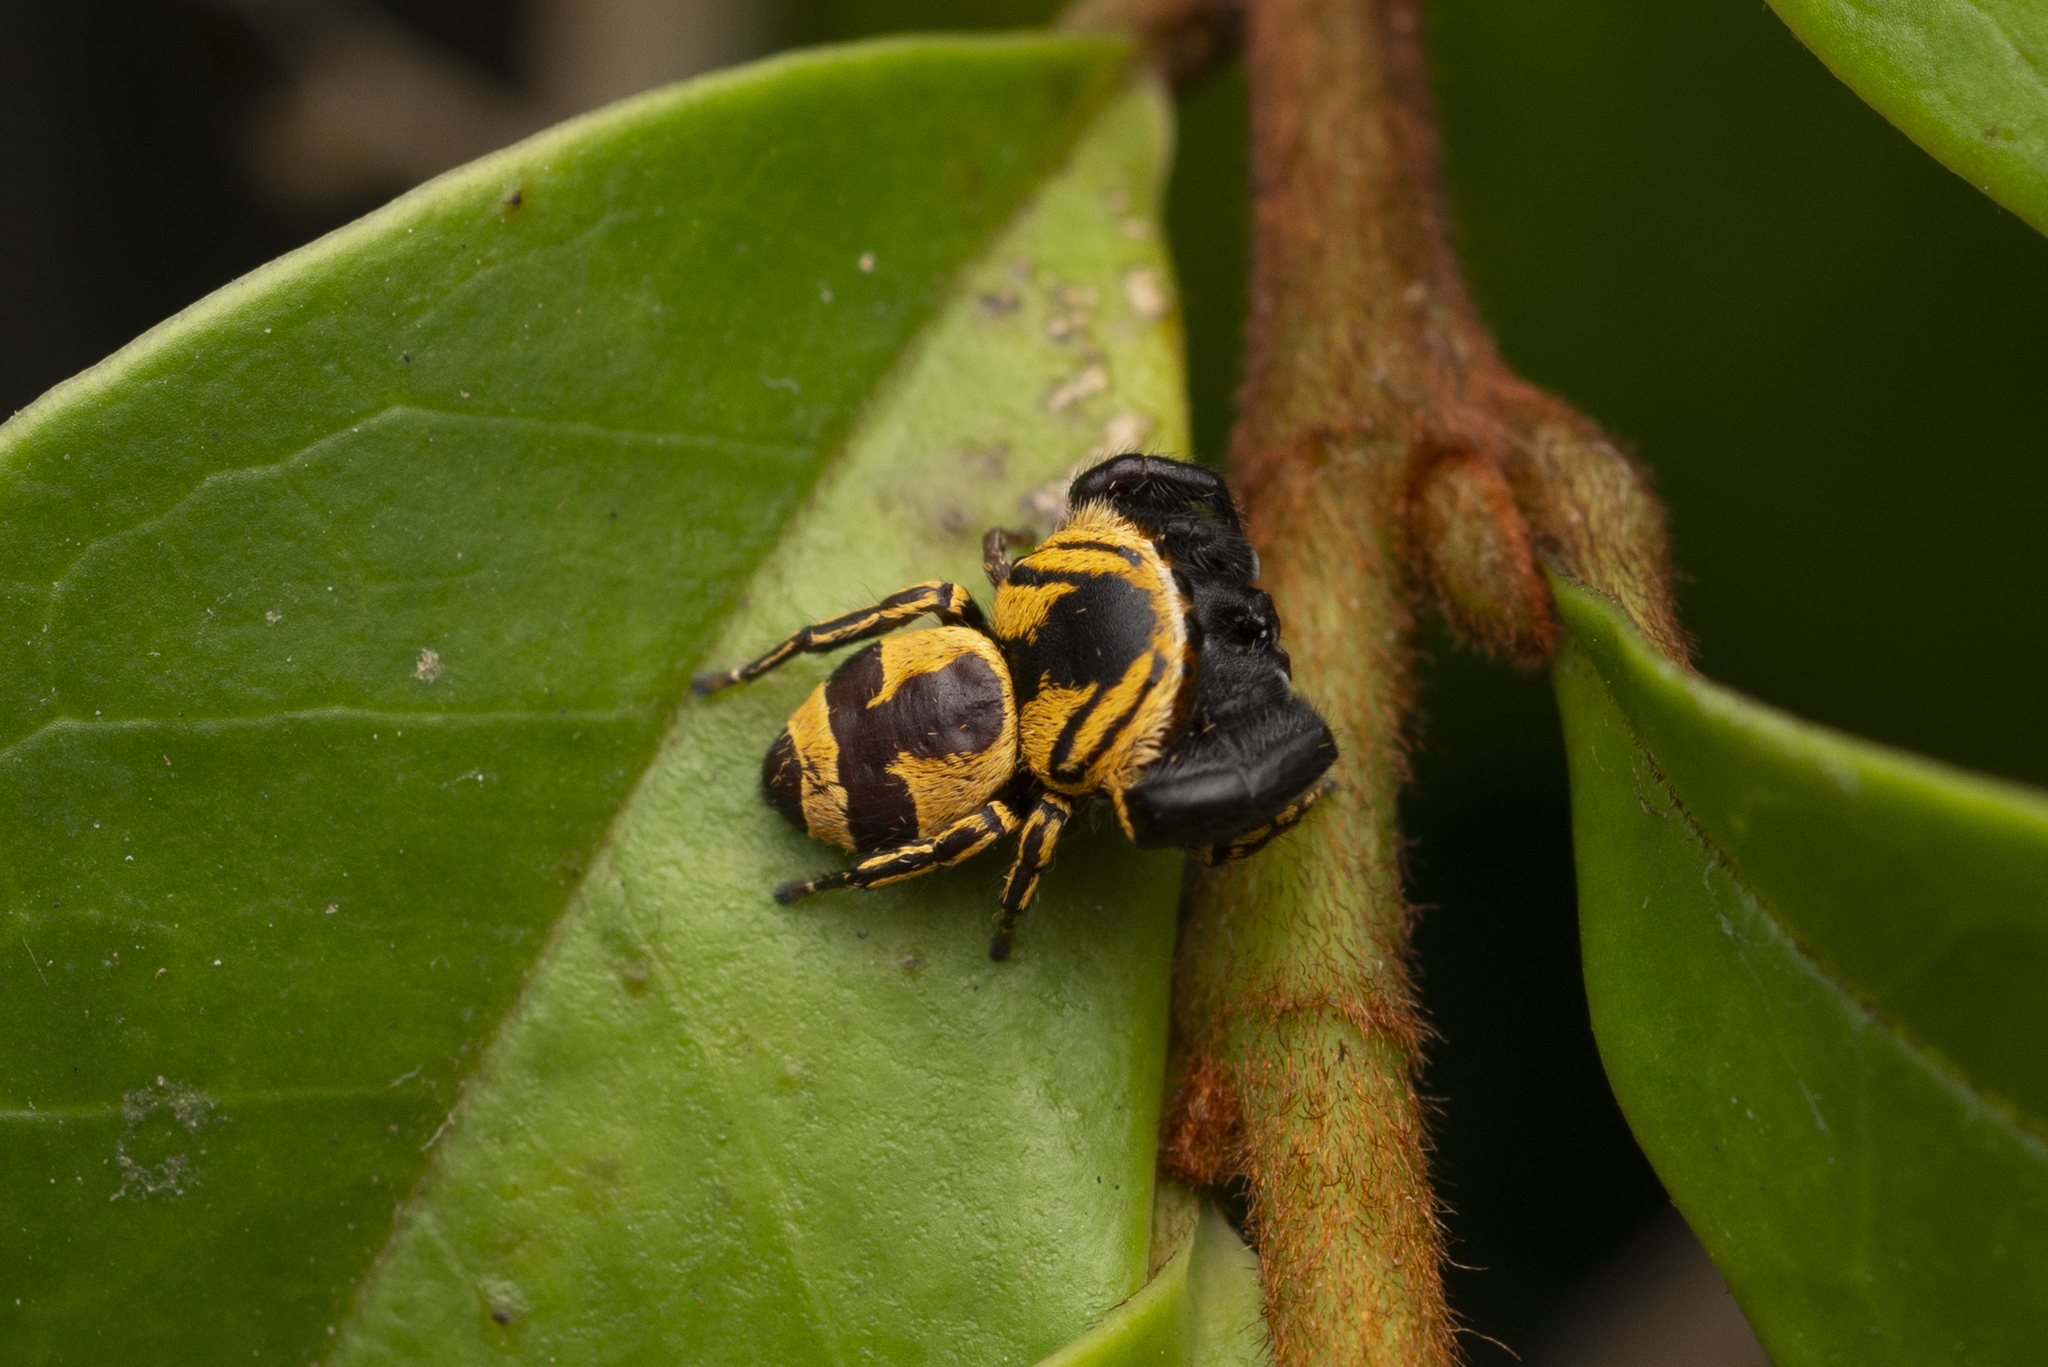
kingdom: Animalia
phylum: Arthropoda
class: Arachnida
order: Araneae
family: Salticidae
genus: Rhene
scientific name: Rhene flavicomans
